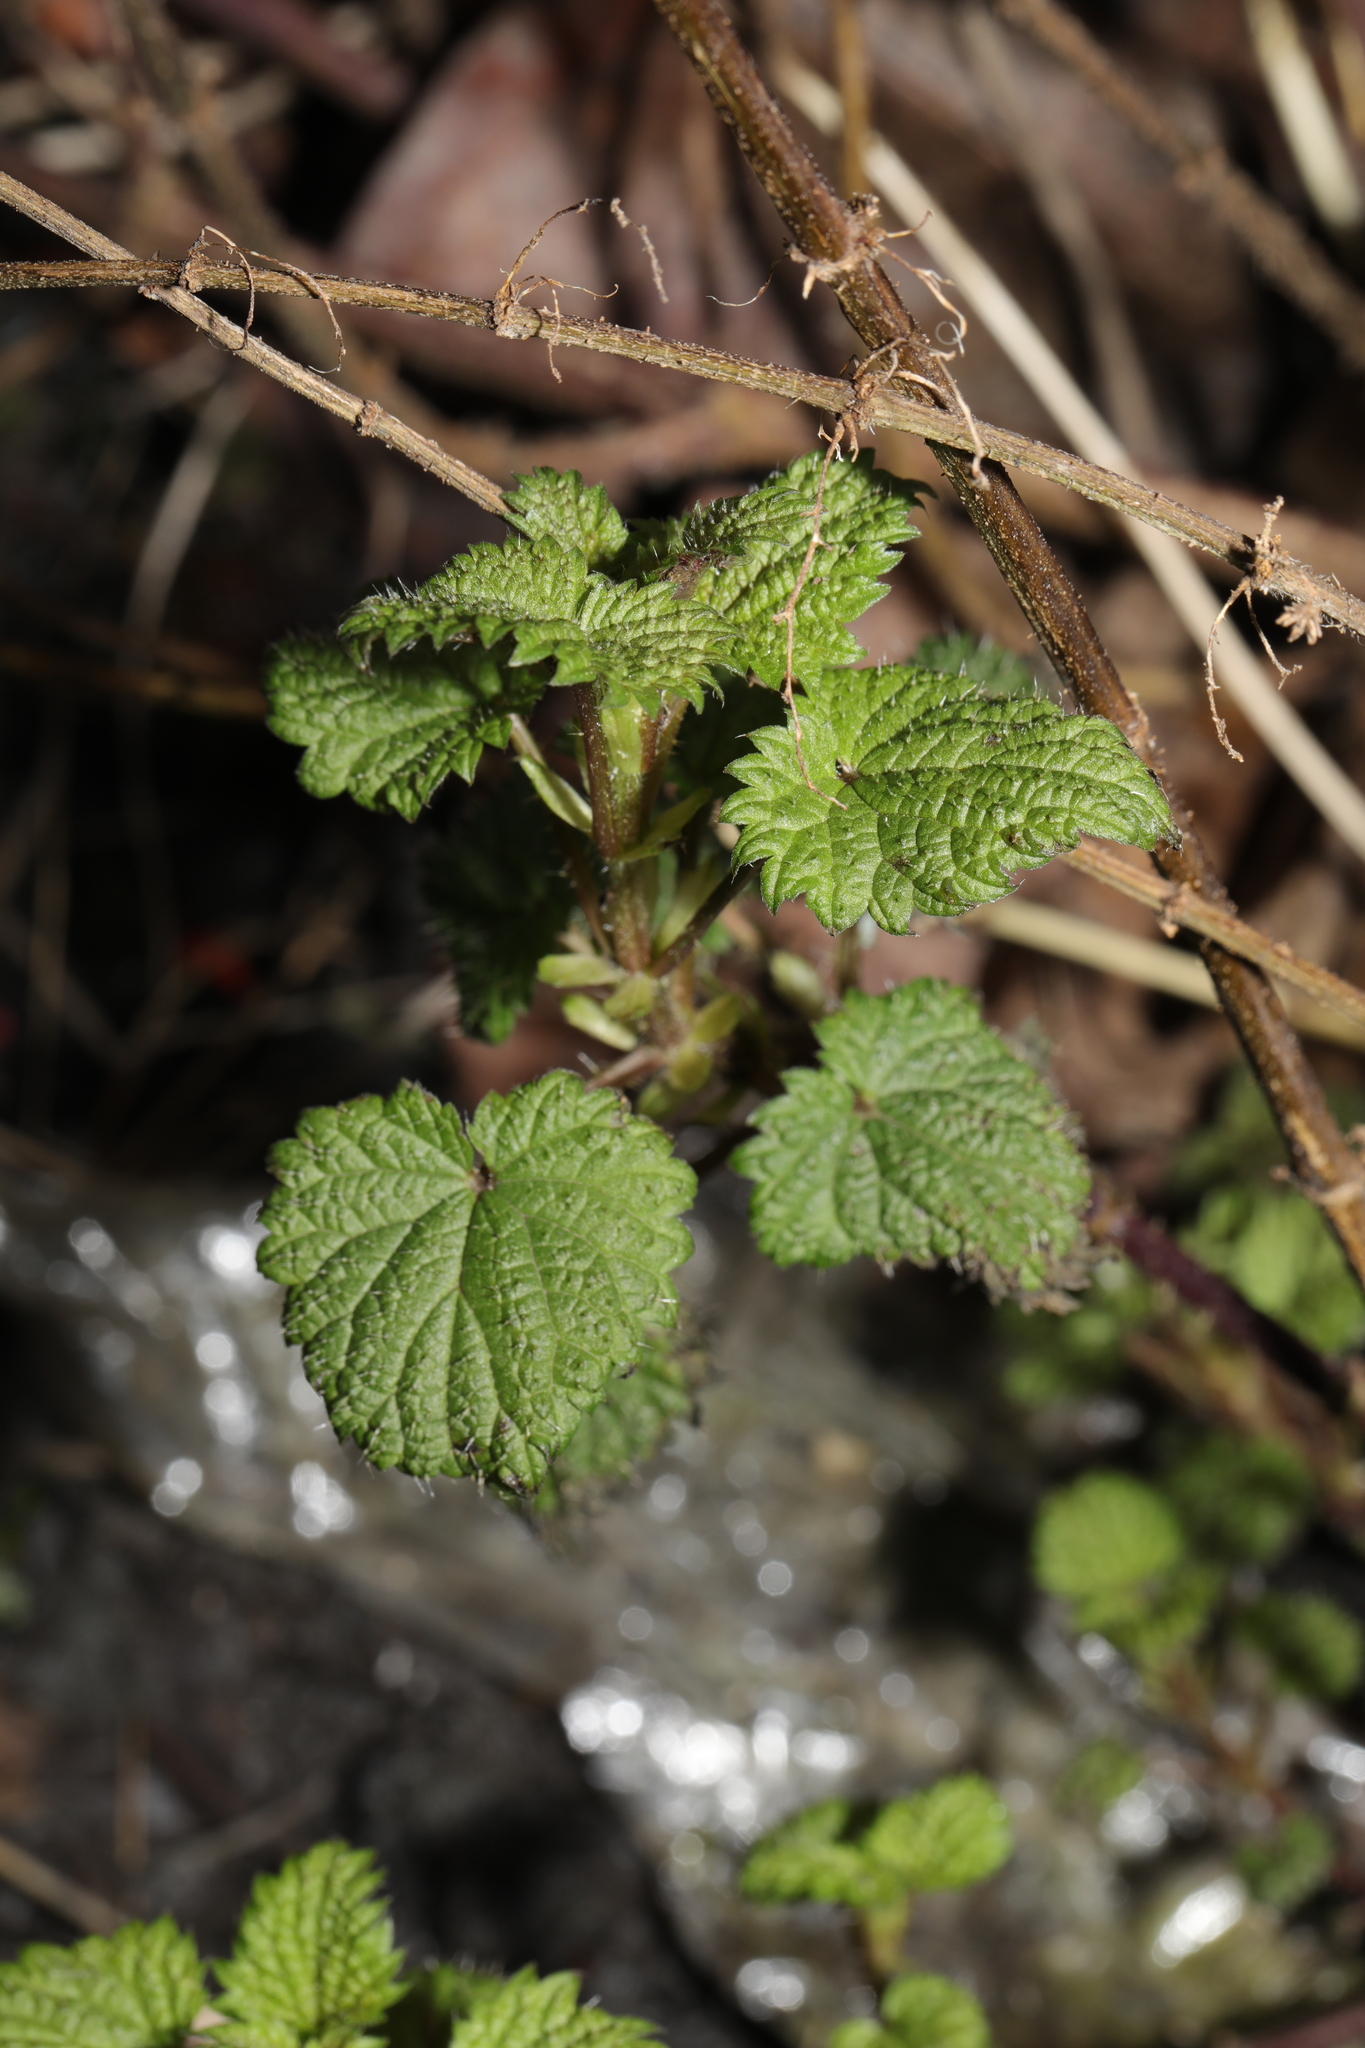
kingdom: Plantae
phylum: Tracheophyta
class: Magnoliopsida
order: Rosales
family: Urticaceae
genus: Urtica
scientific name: Urtica dioica
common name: Common nettle
